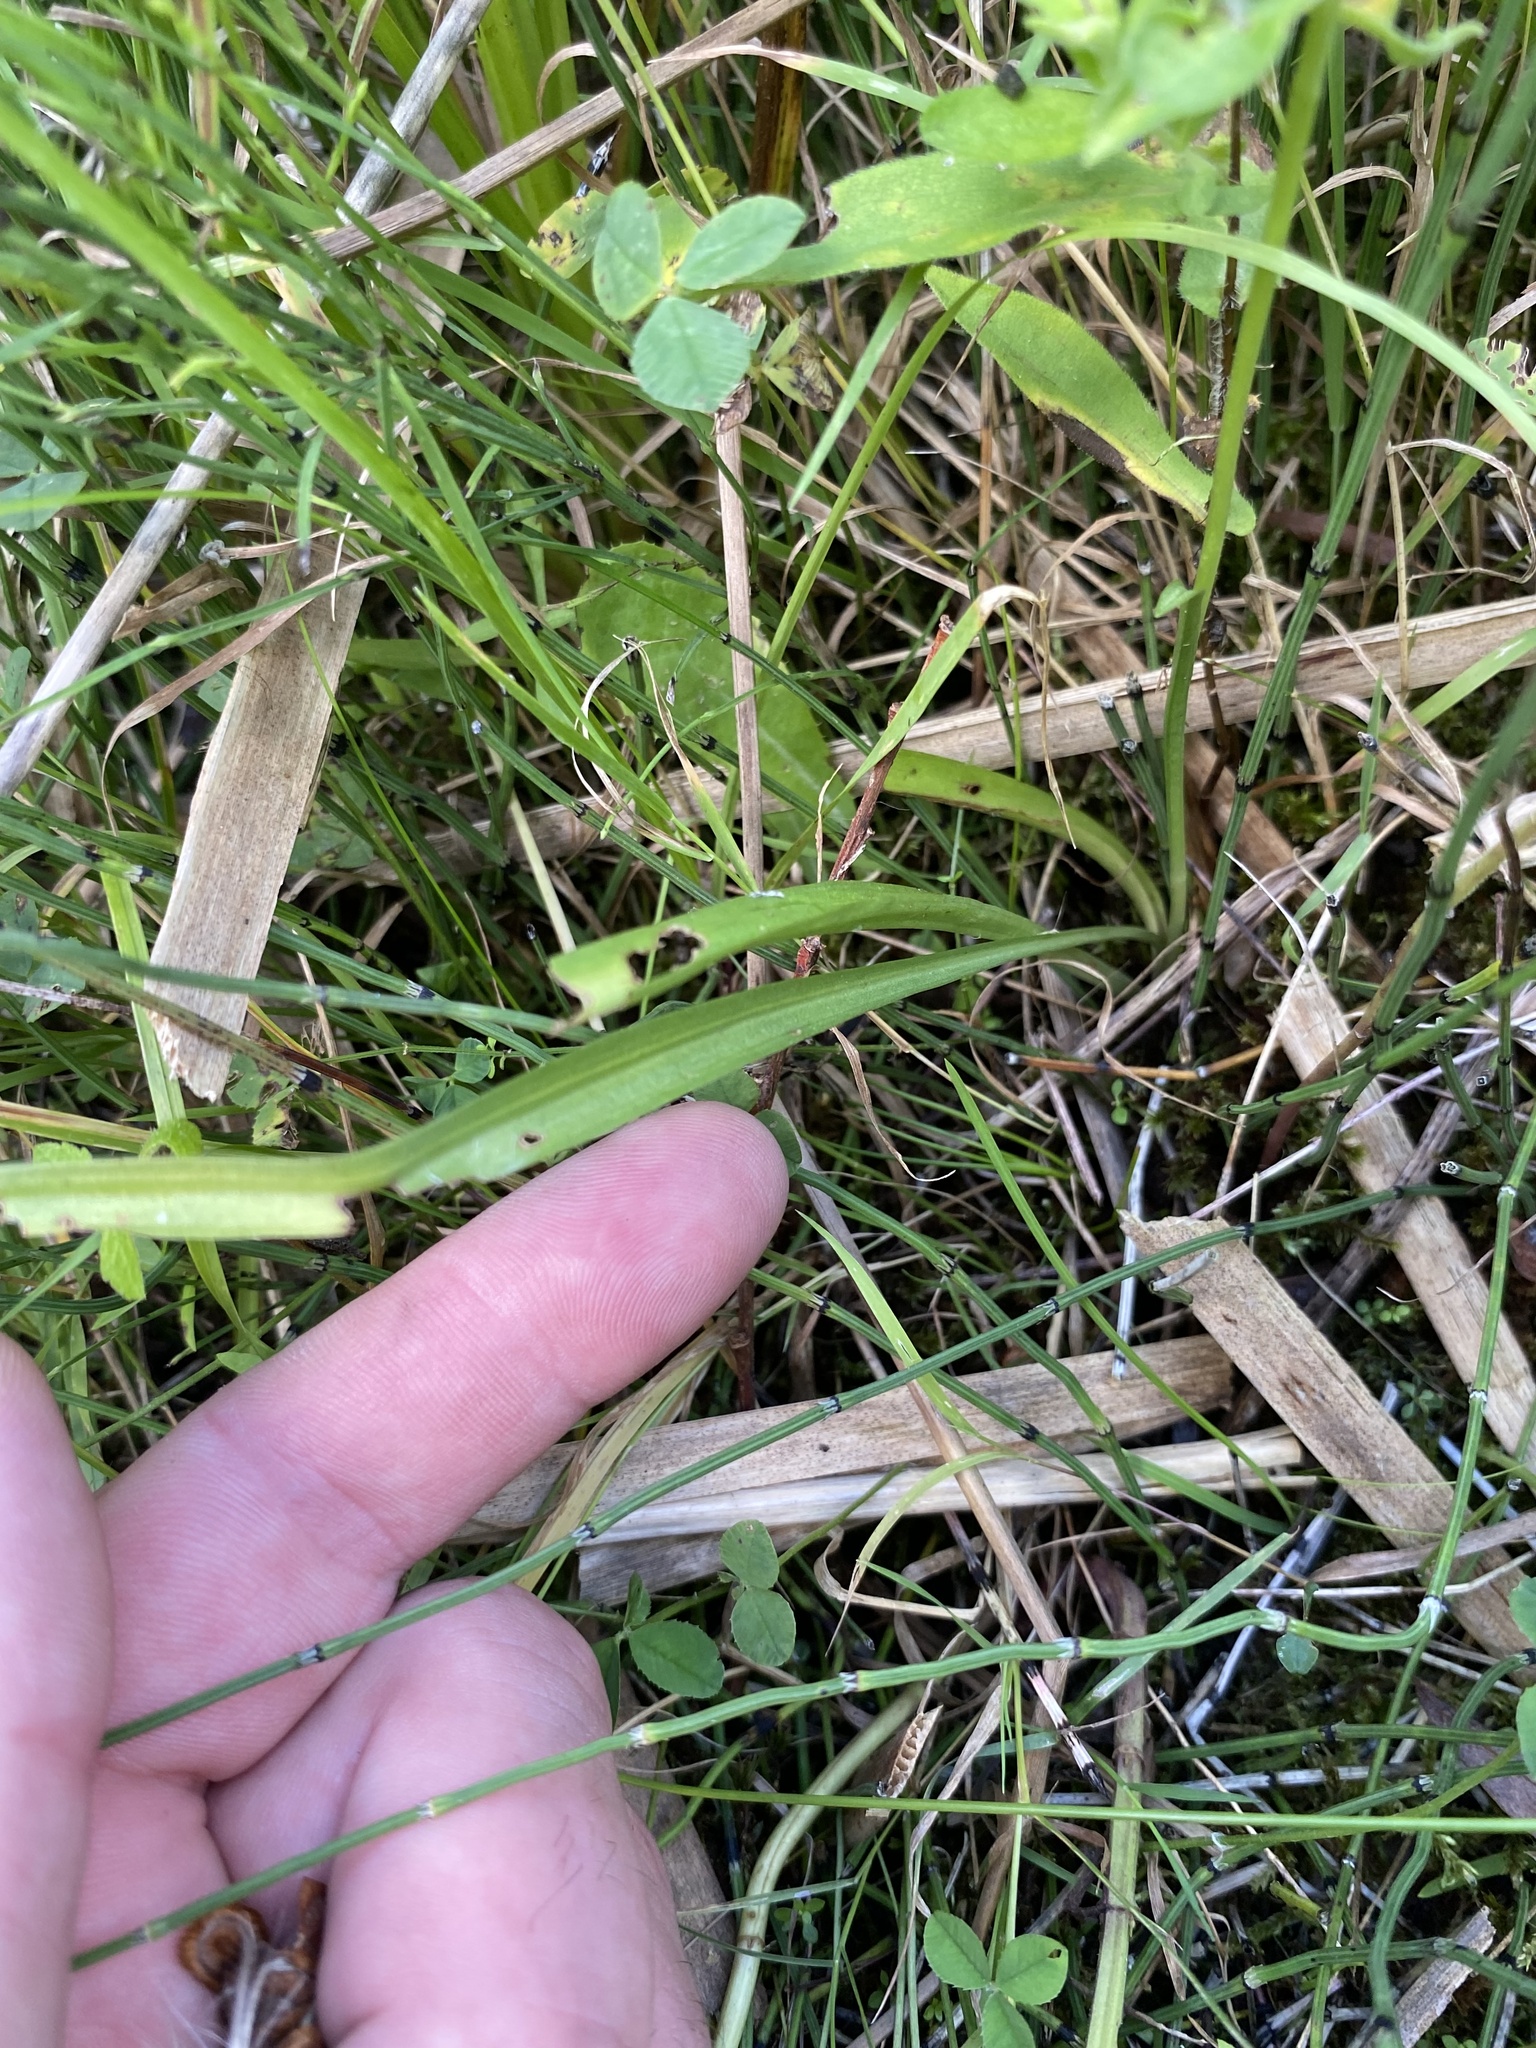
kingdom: Plantae
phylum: Tracheophyta
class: Liliopsida
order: Asparagales
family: Orchidaceae
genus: Spiranthes
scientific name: Spiranthes incurva
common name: Sphinx ladies'-tresses
